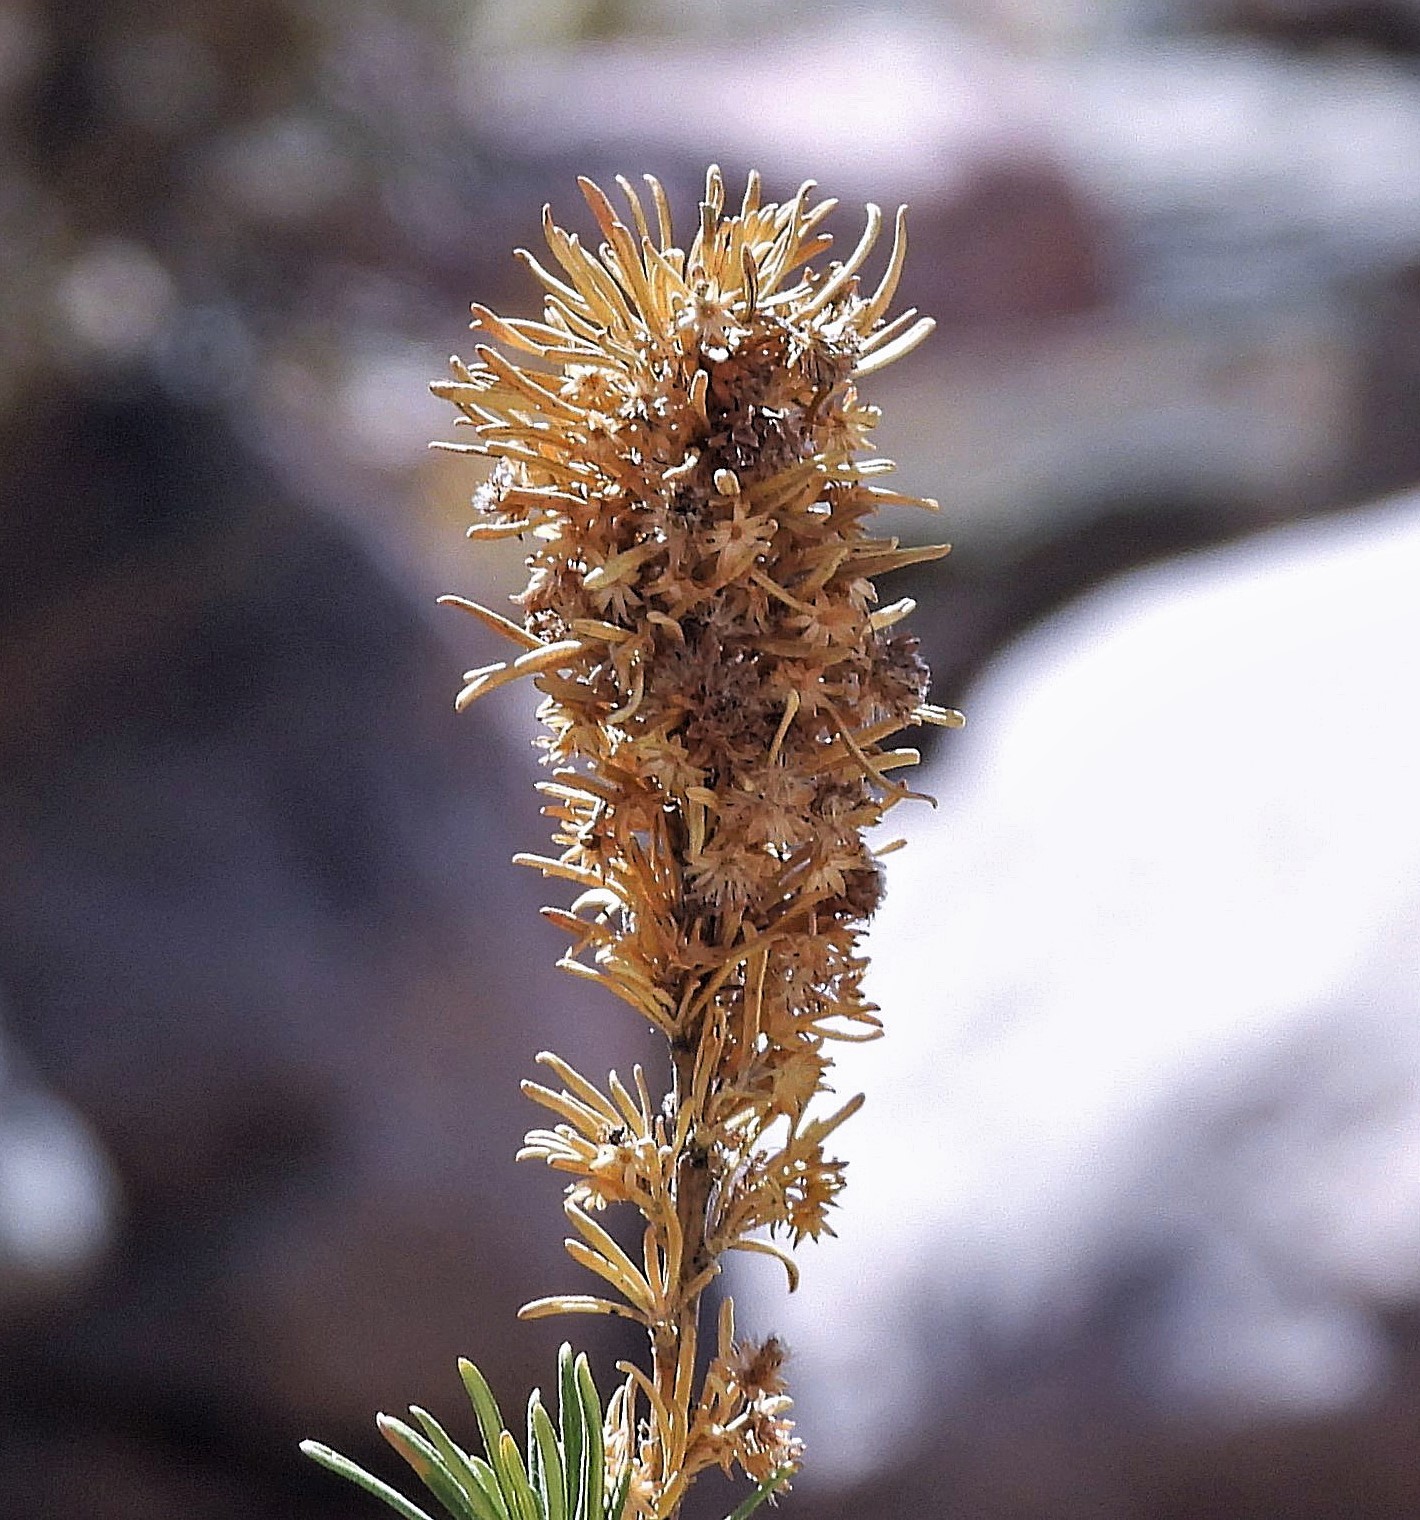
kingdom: Plantae
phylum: Tracheophyta
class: Magnoliopsida
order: Asterales
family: Asteraceae
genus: Baccharis
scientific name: Baccharis grisebachii
